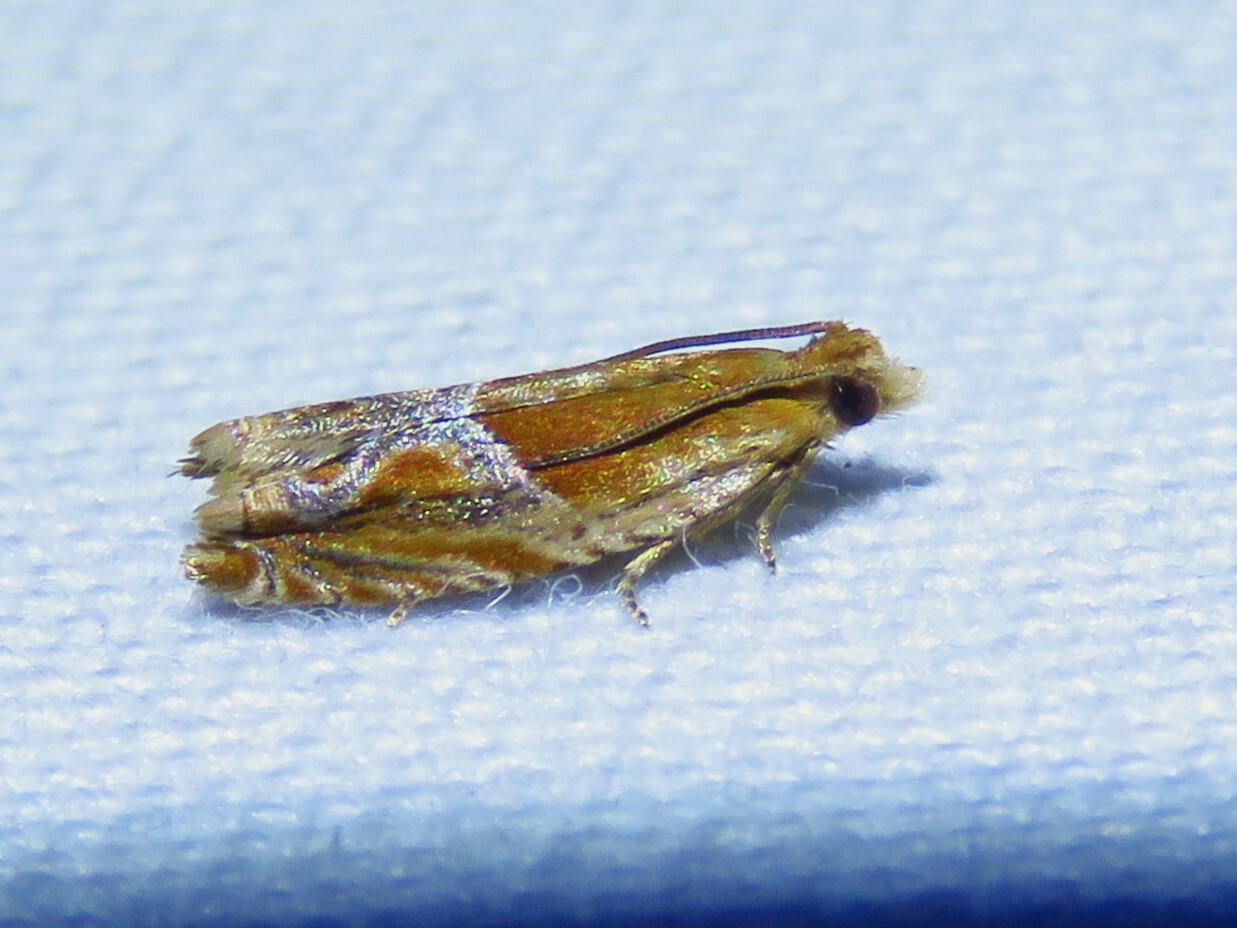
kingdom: Animalia
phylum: Arthropoda
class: Insecta
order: Lepidoptera
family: Tortricidae
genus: Ancylis
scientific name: Ancylis comptana
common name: Little roller
